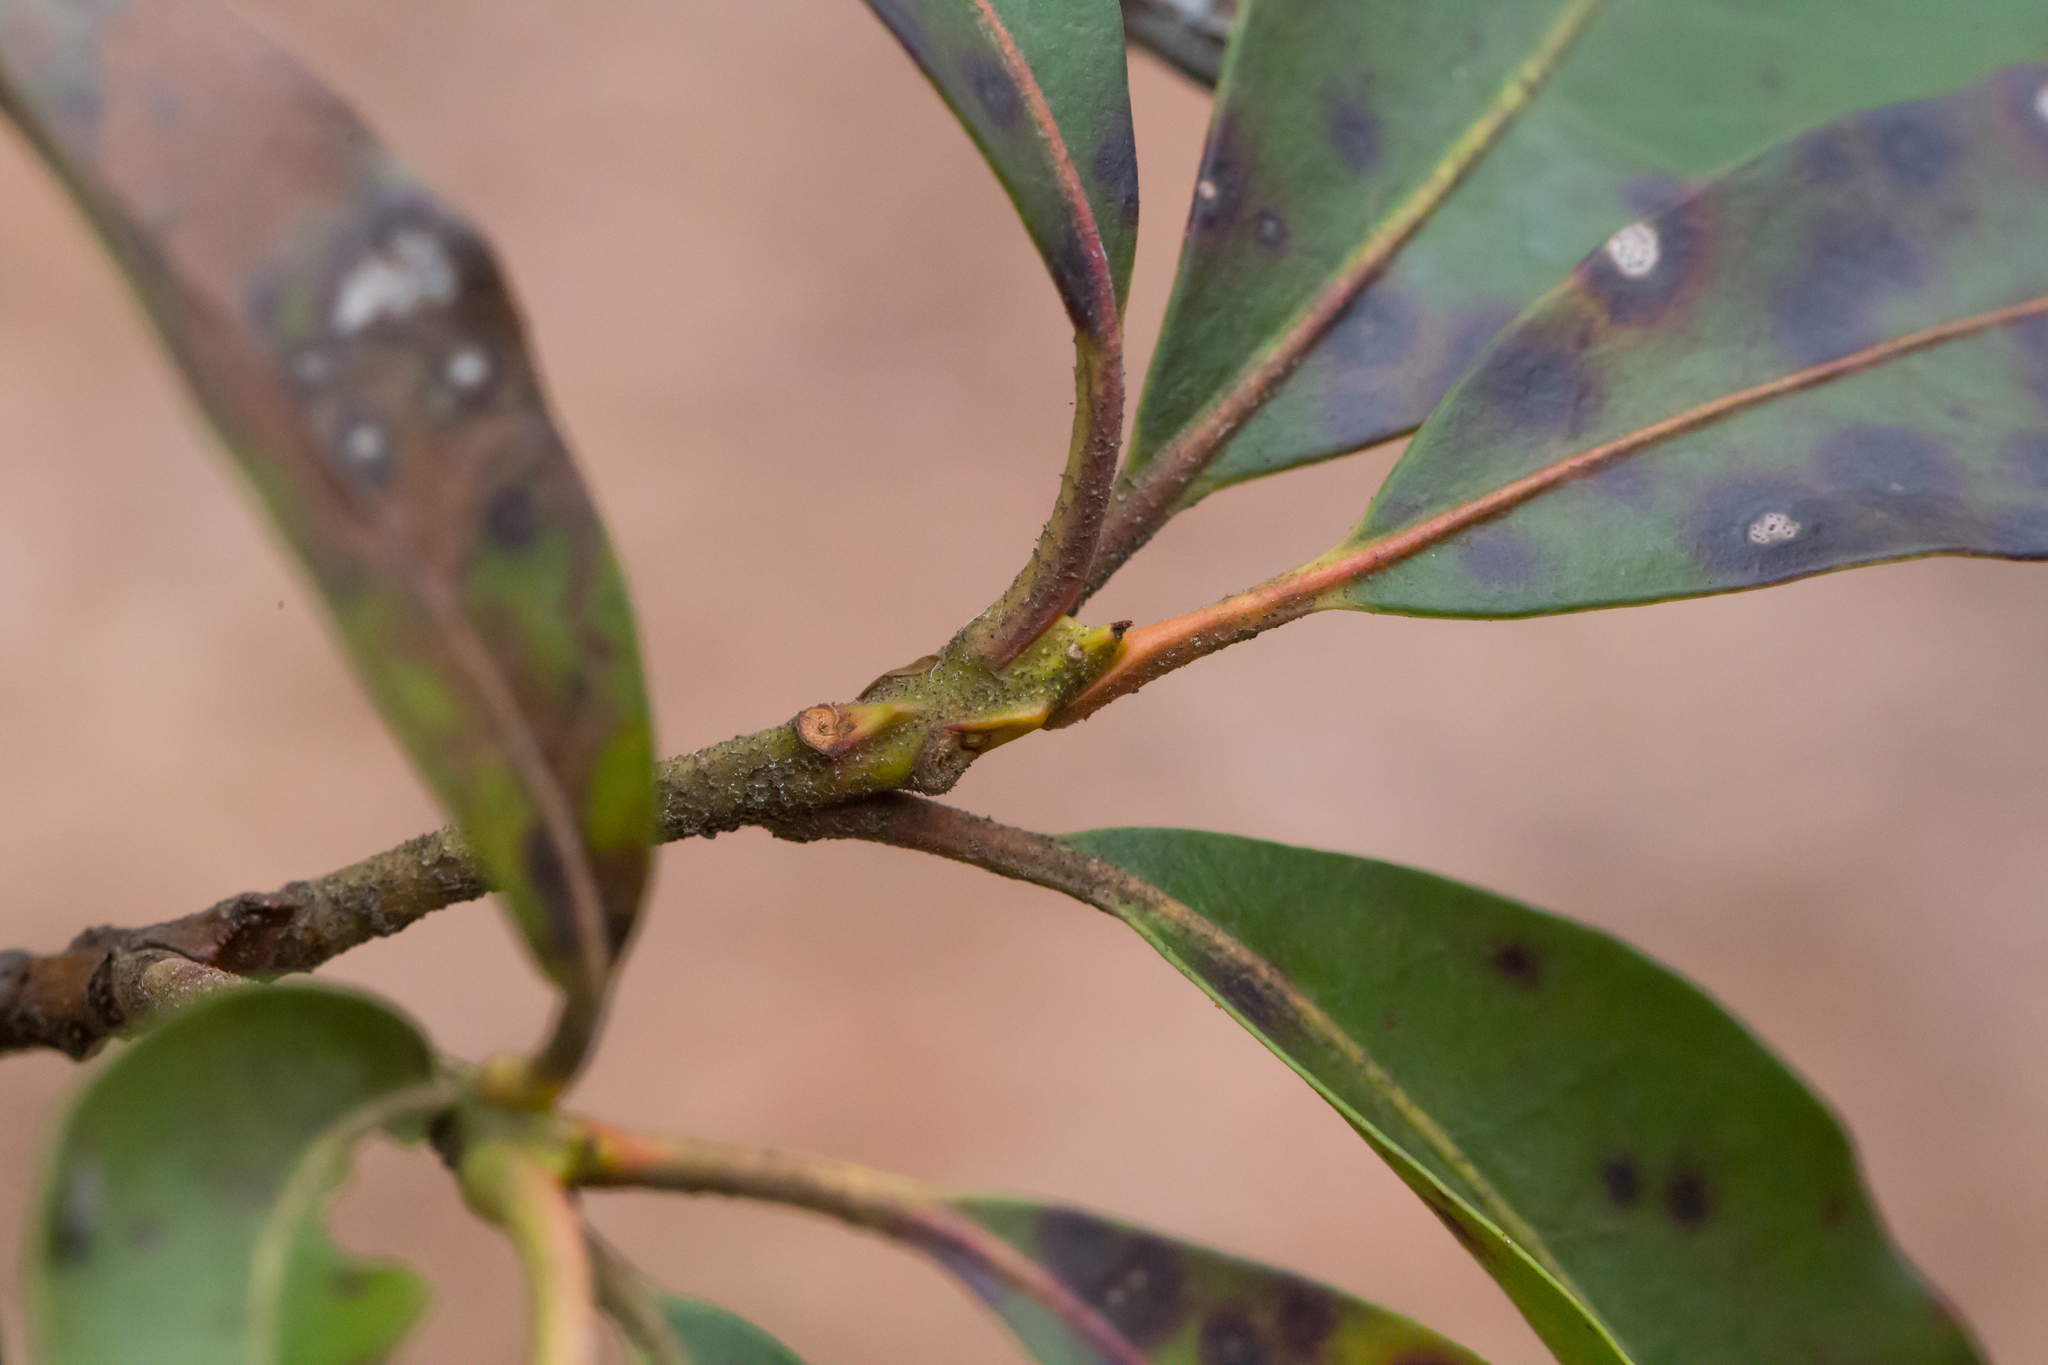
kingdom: Plantae
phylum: Tracheophyta
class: Magnoliopsida
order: Ericales
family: Ericaceae
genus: Kalmia
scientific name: Kalmia latifolia
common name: Mountain-laurel
